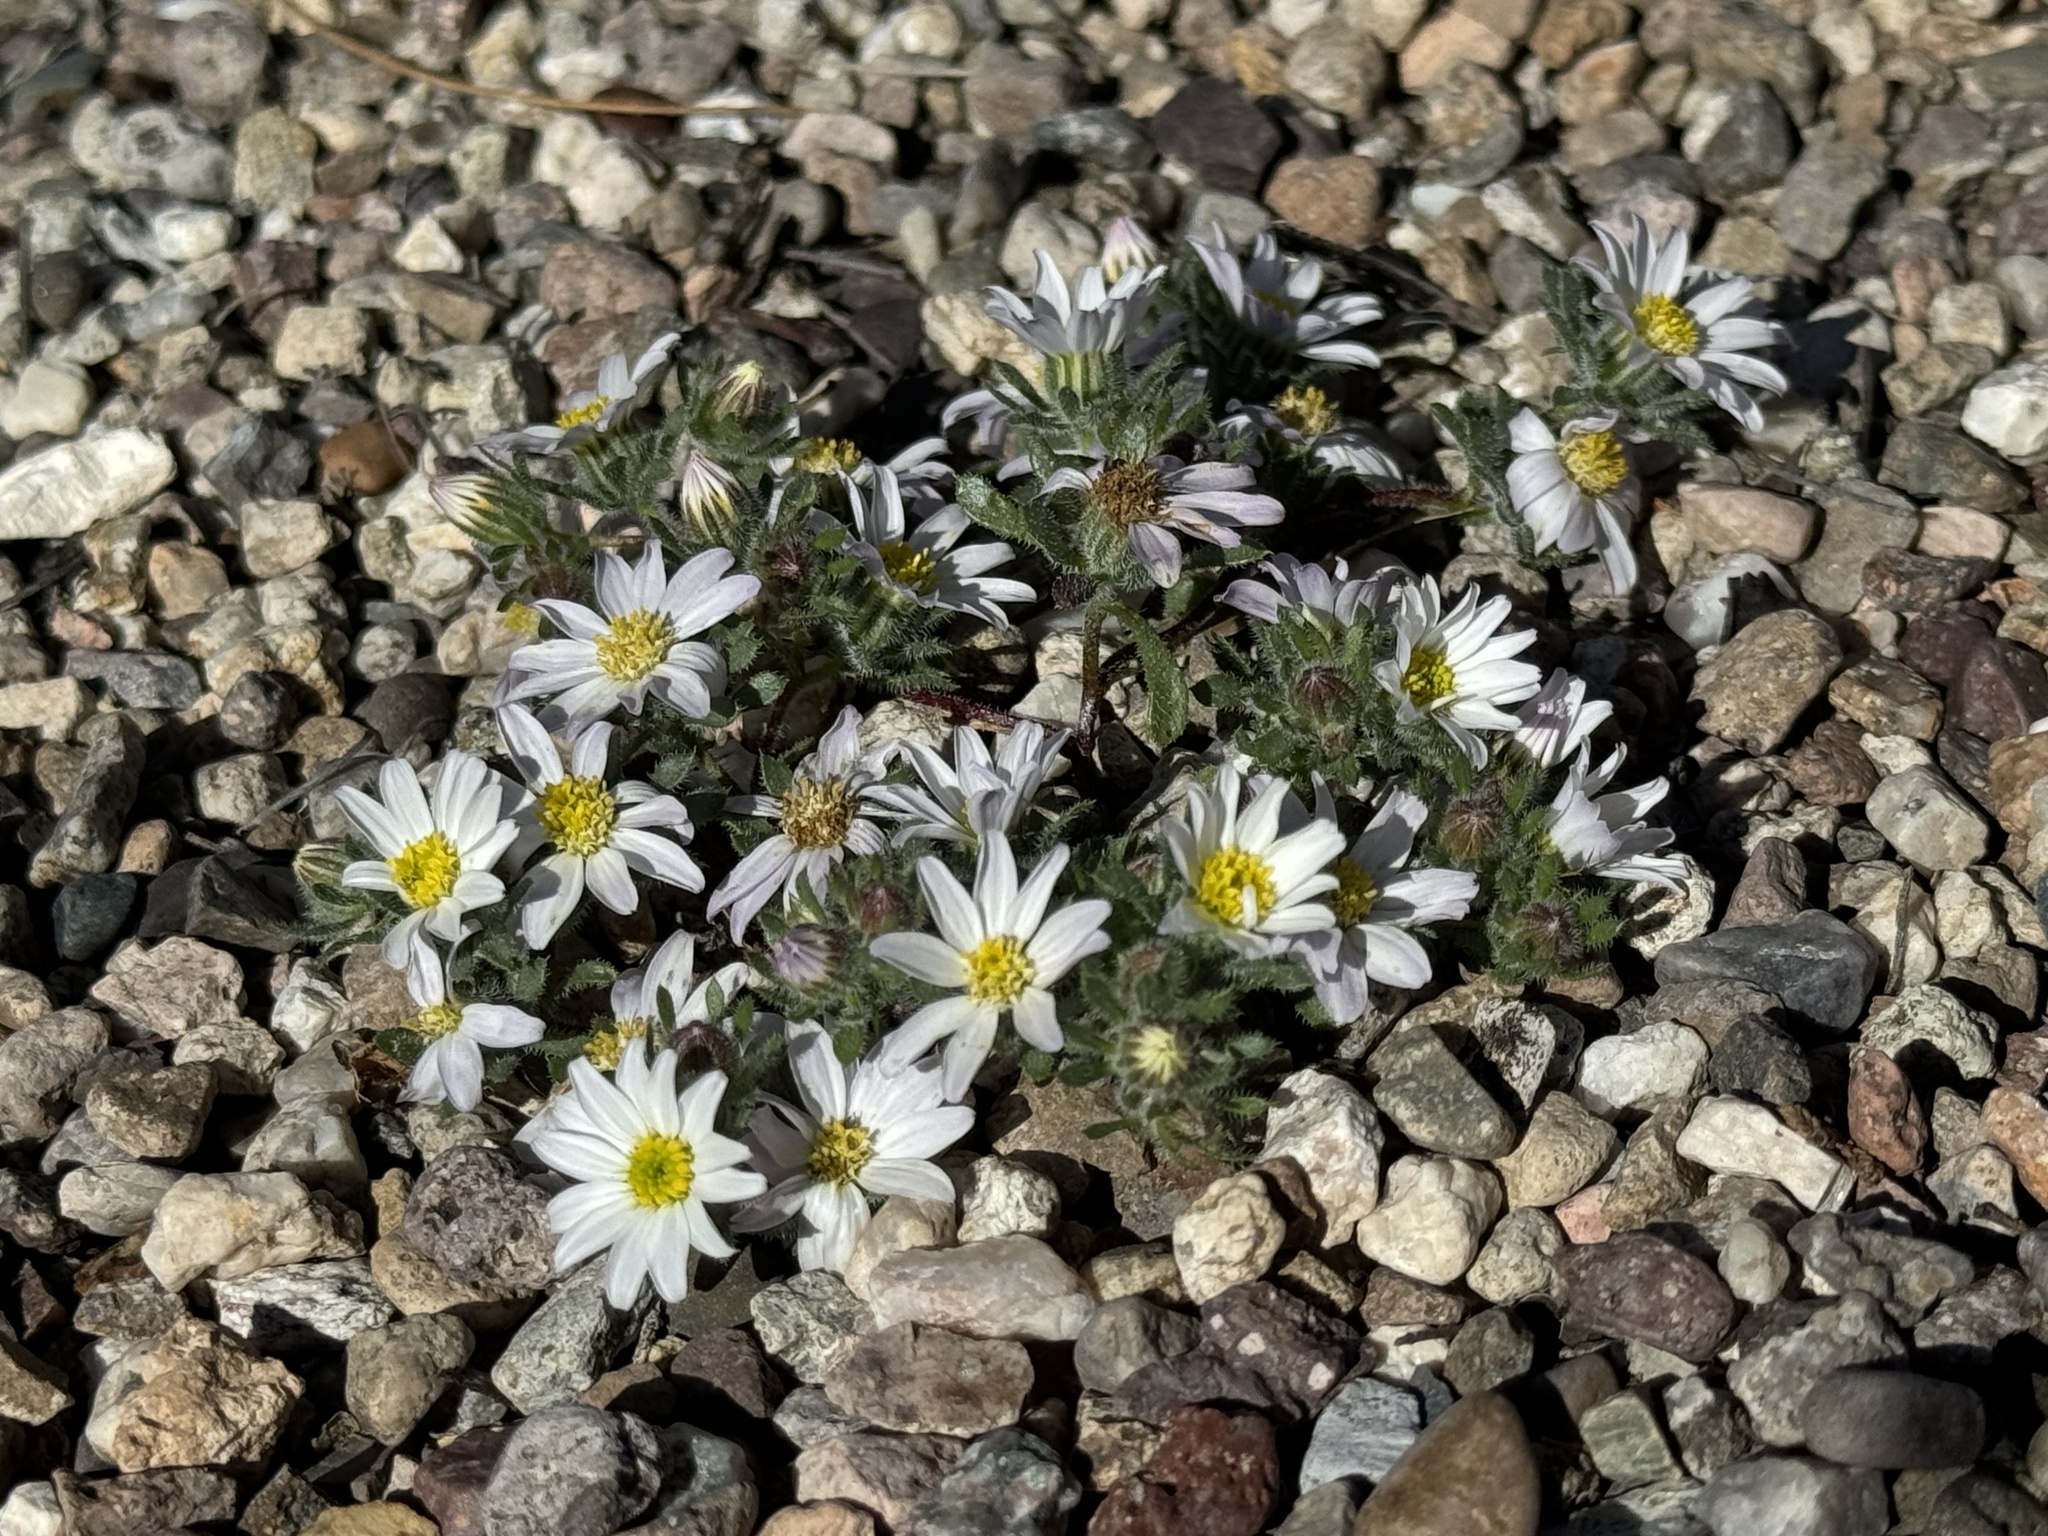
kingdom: Plantae
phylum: Tracheophyta
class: Magnoliopsida
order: Asterales
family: Asteraceae
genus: Monoptilon
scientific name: Monoptilon bellioides
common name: Bristly desertstar
